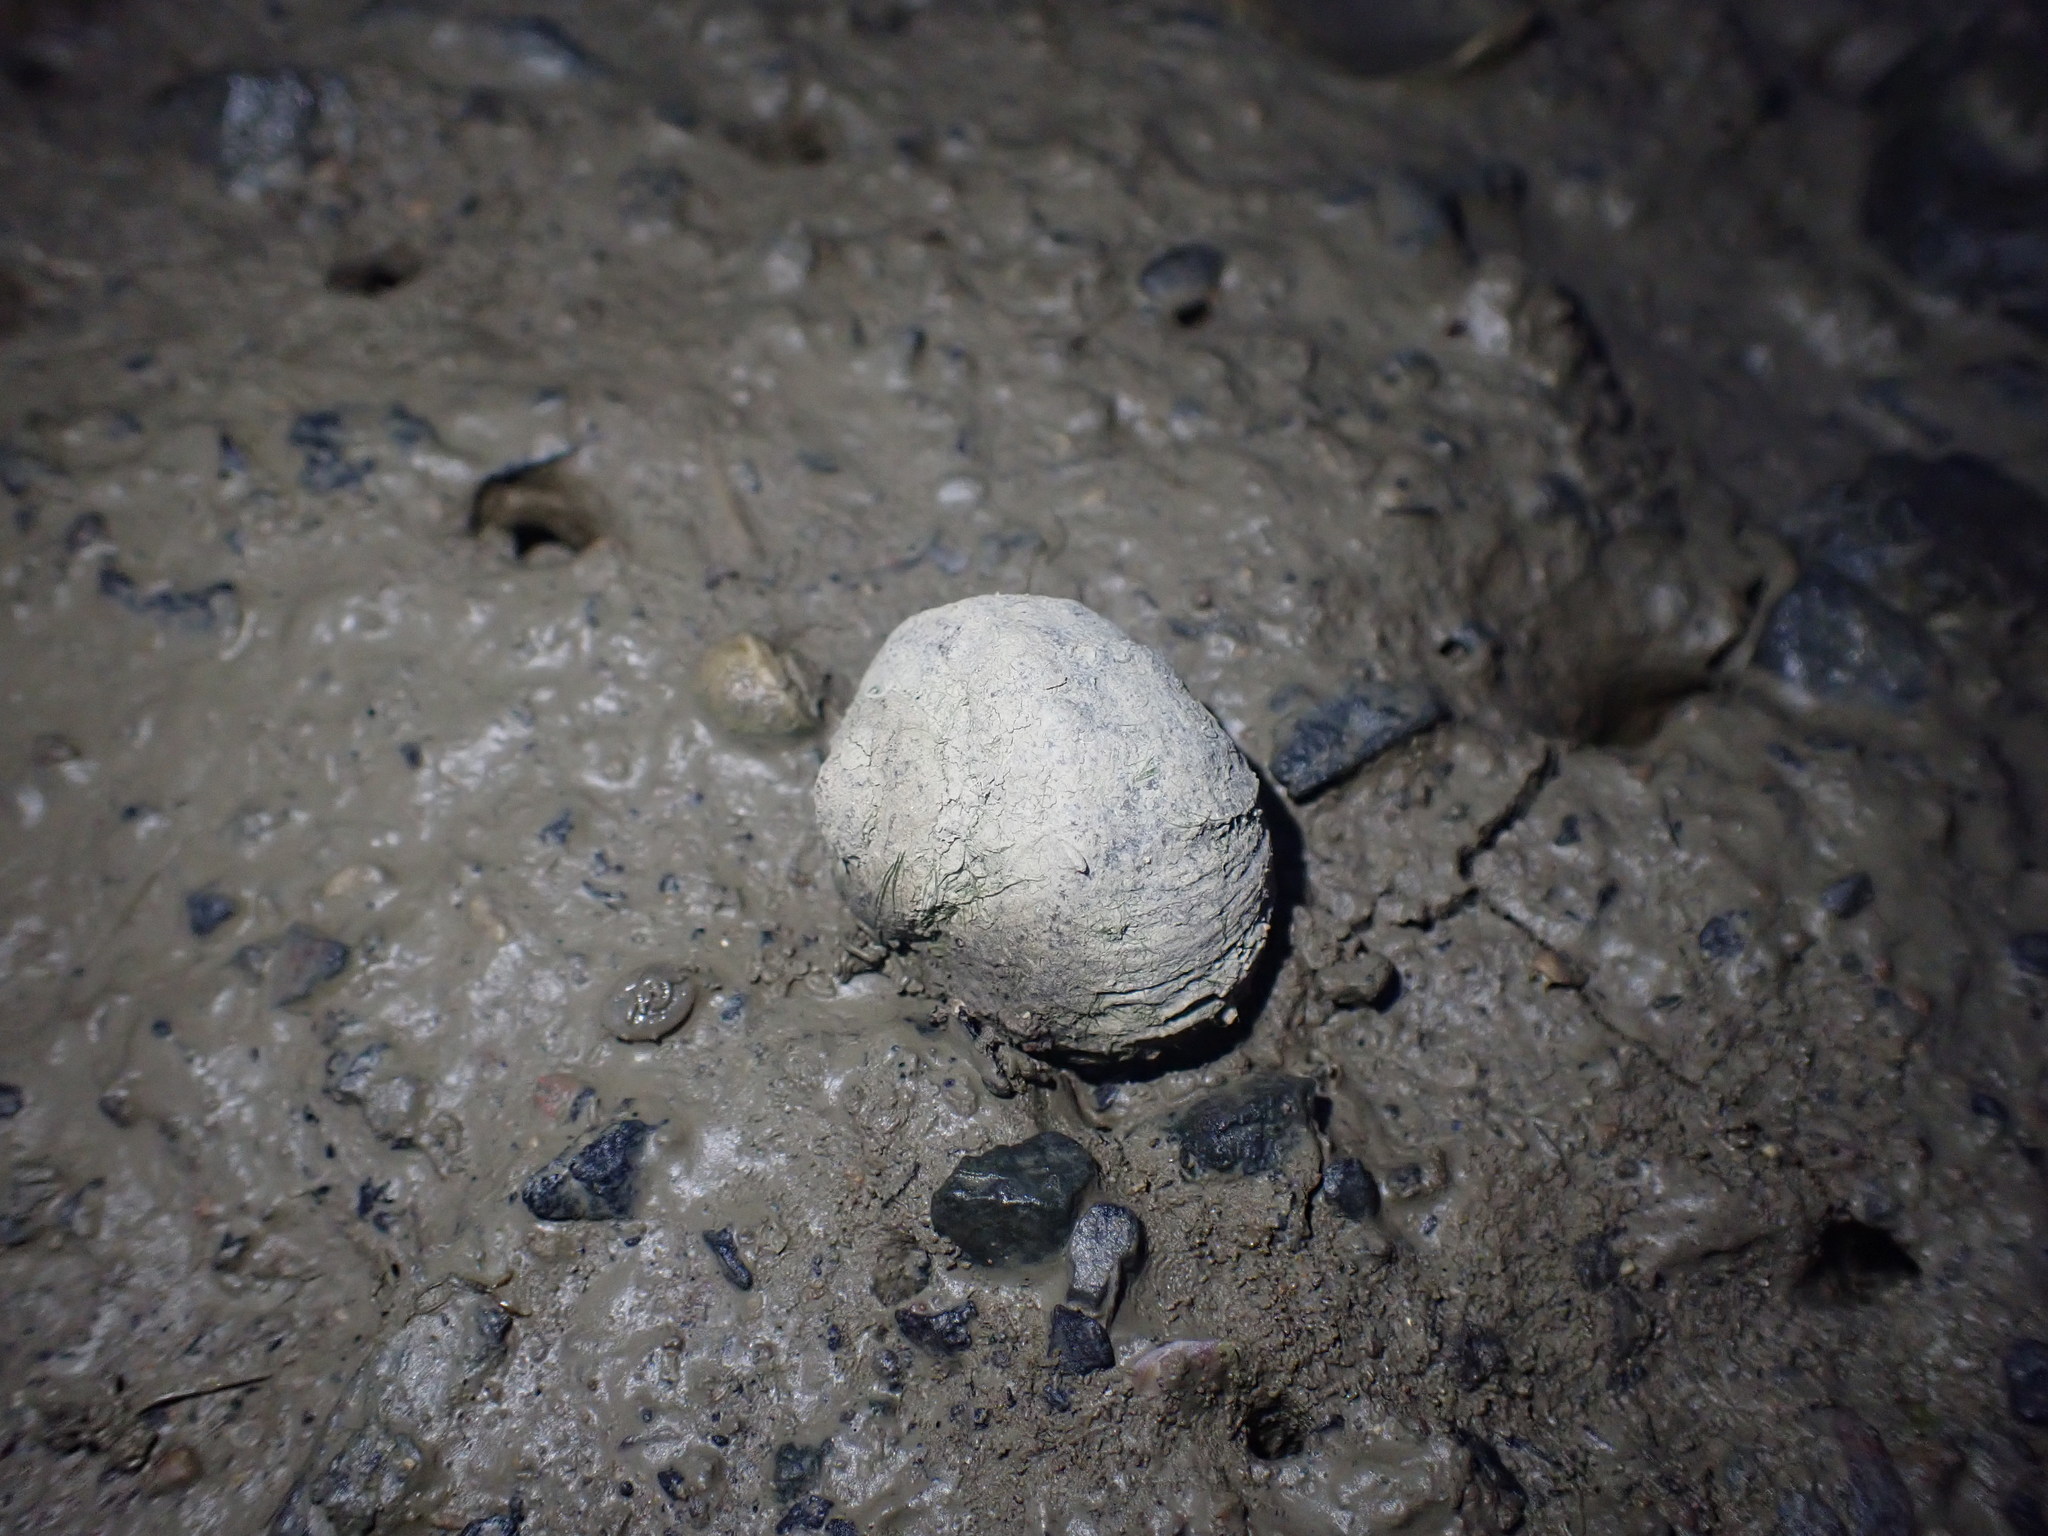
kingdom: Animalia
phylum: Mollusca
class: Gastropoda
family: Amphibolidae
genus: Amphibola
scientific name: Amphibola crenata
